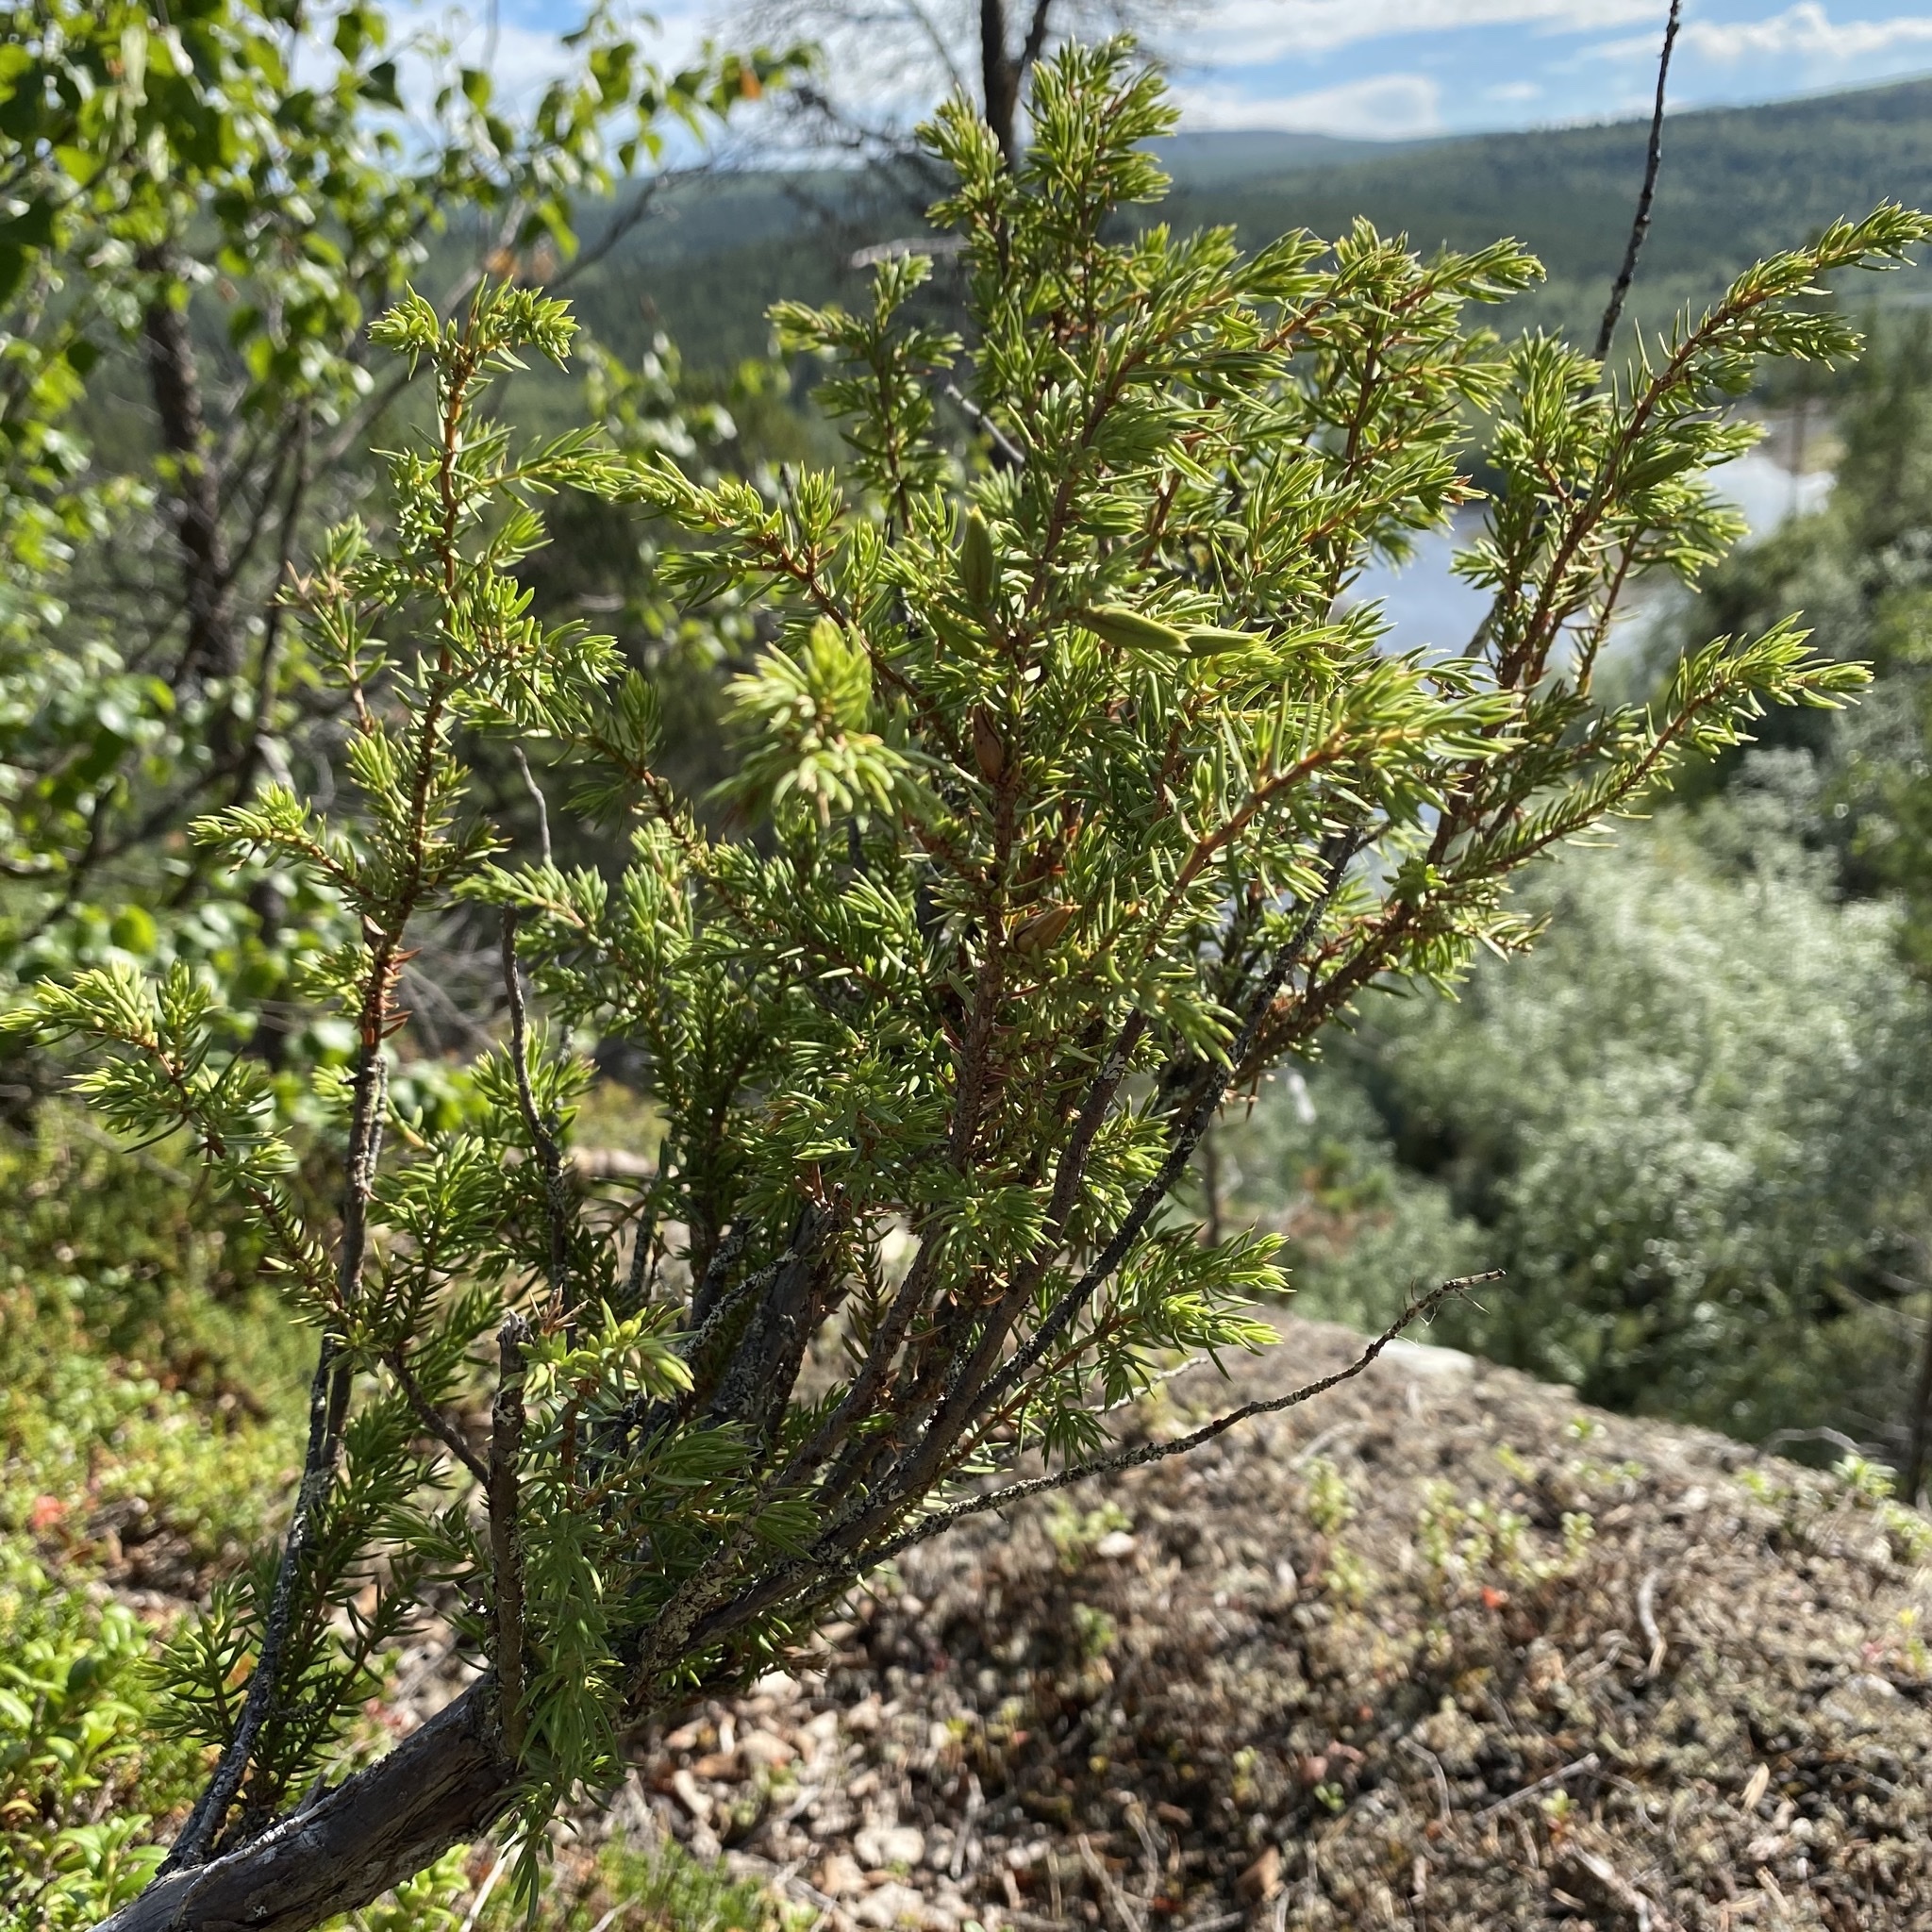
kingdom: Plantae
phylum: Tracheophyta
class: Pinopsida
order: Pinales
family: Cupressaceae
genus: Juniperus
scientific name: Juniperus communis
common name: Common juniper
